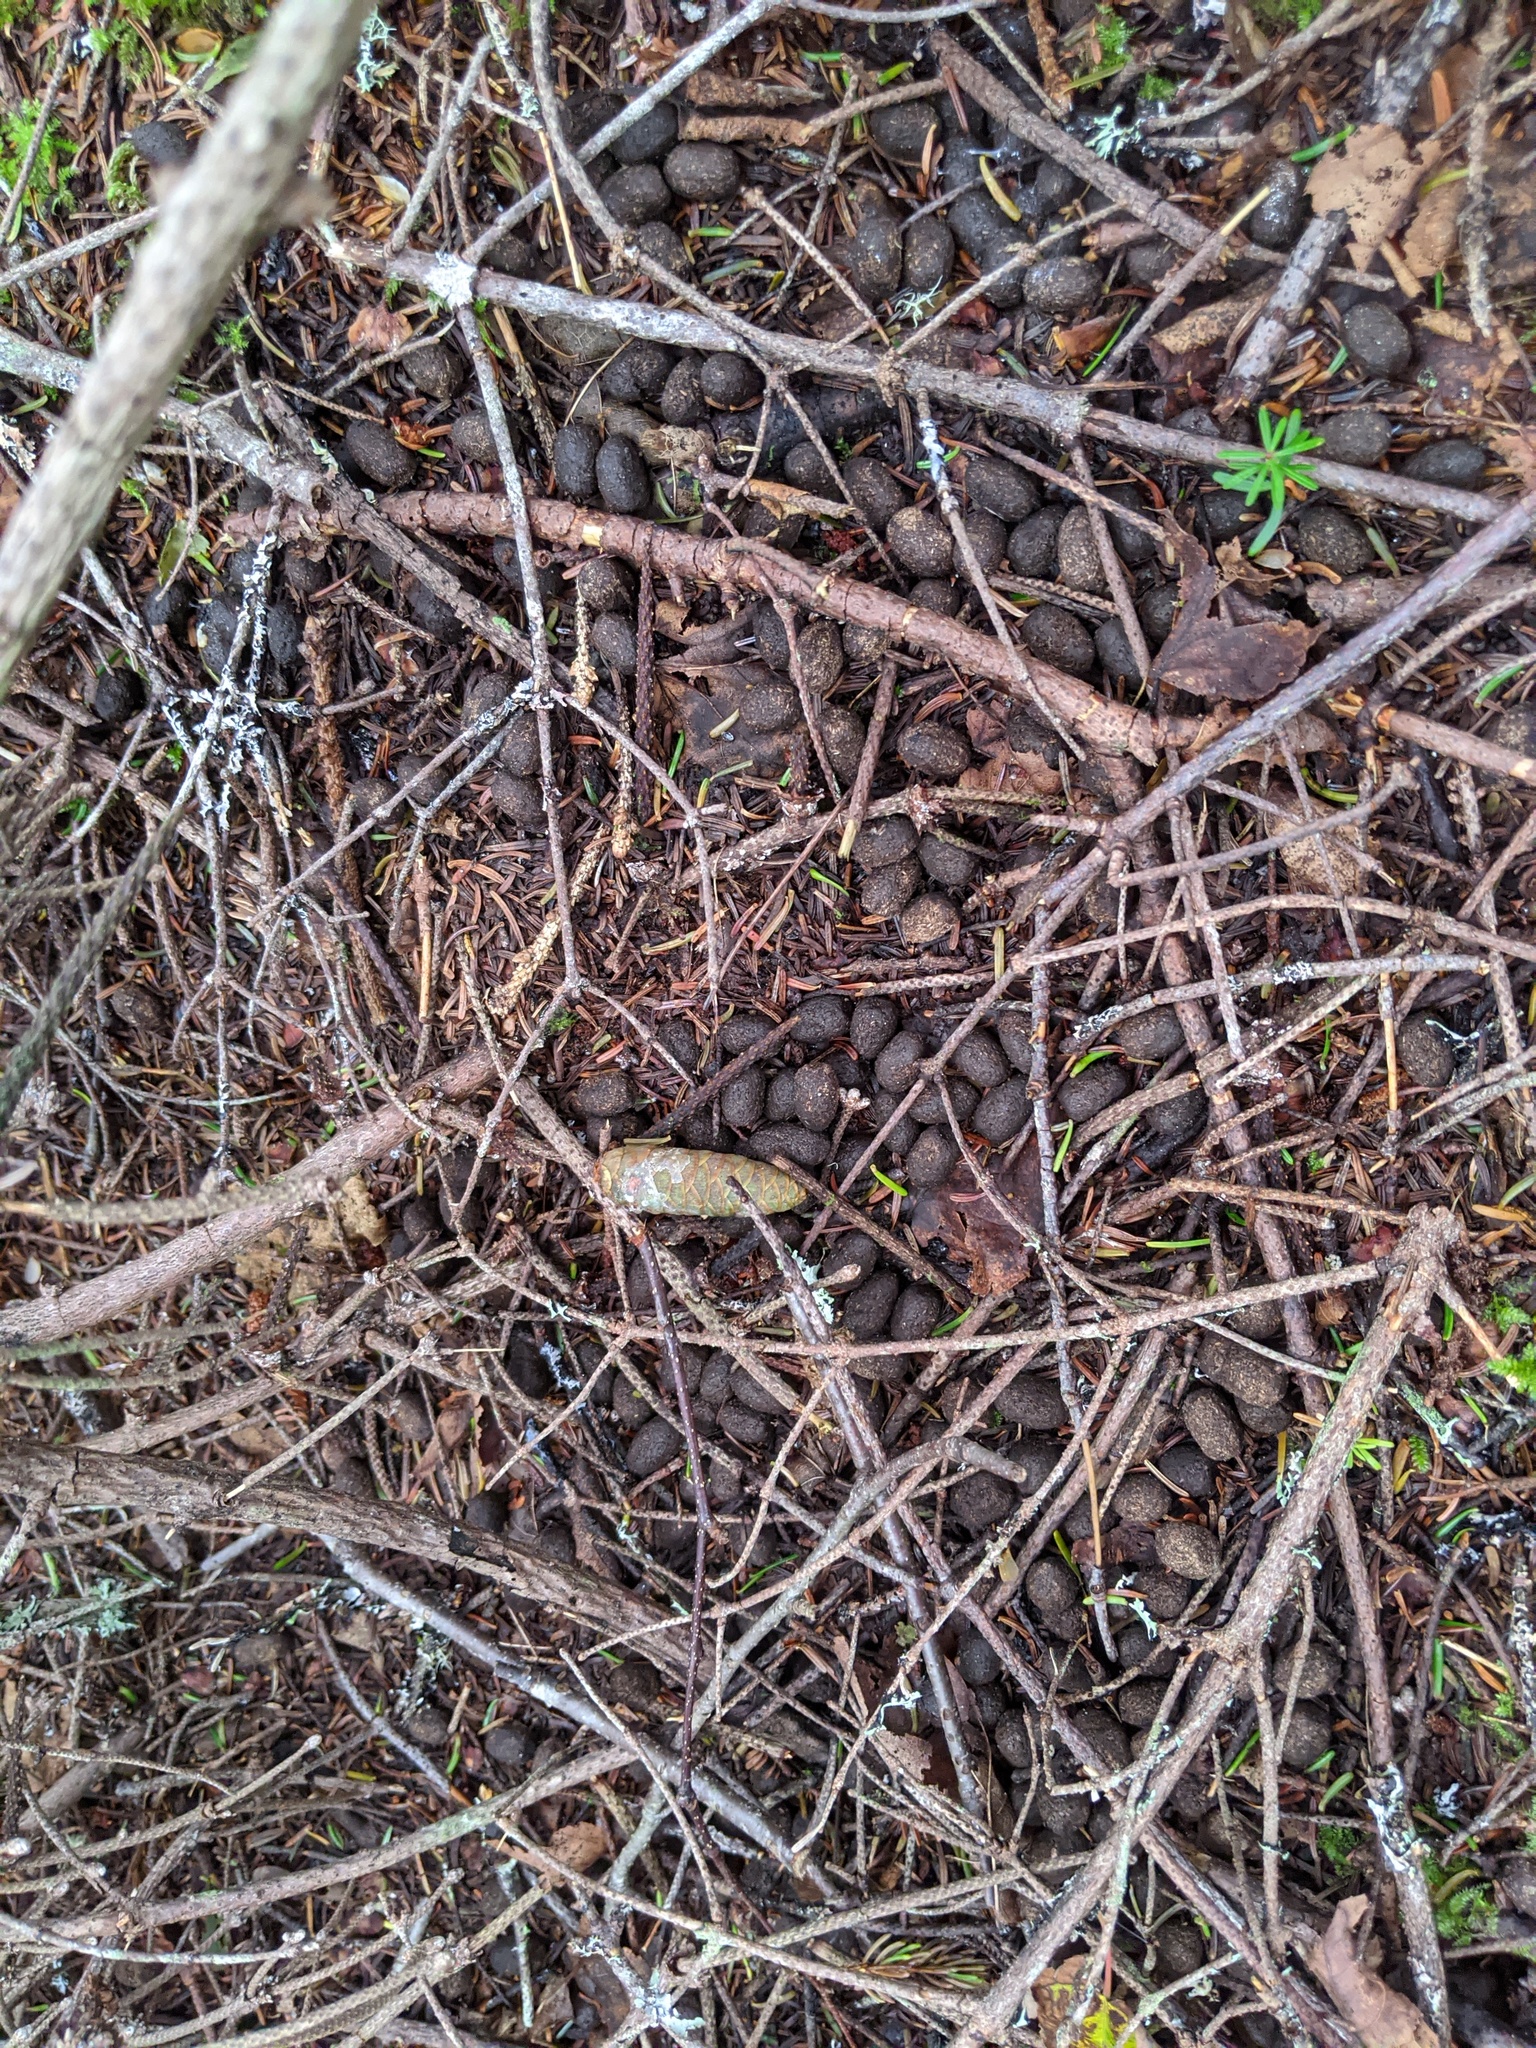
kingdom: Animalia
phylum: Chordata
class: Mammalia
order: Artiodactyla
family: Cervidae
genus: Odocoileus
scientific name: Odocoileus virginianus
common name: White-tailed deer
